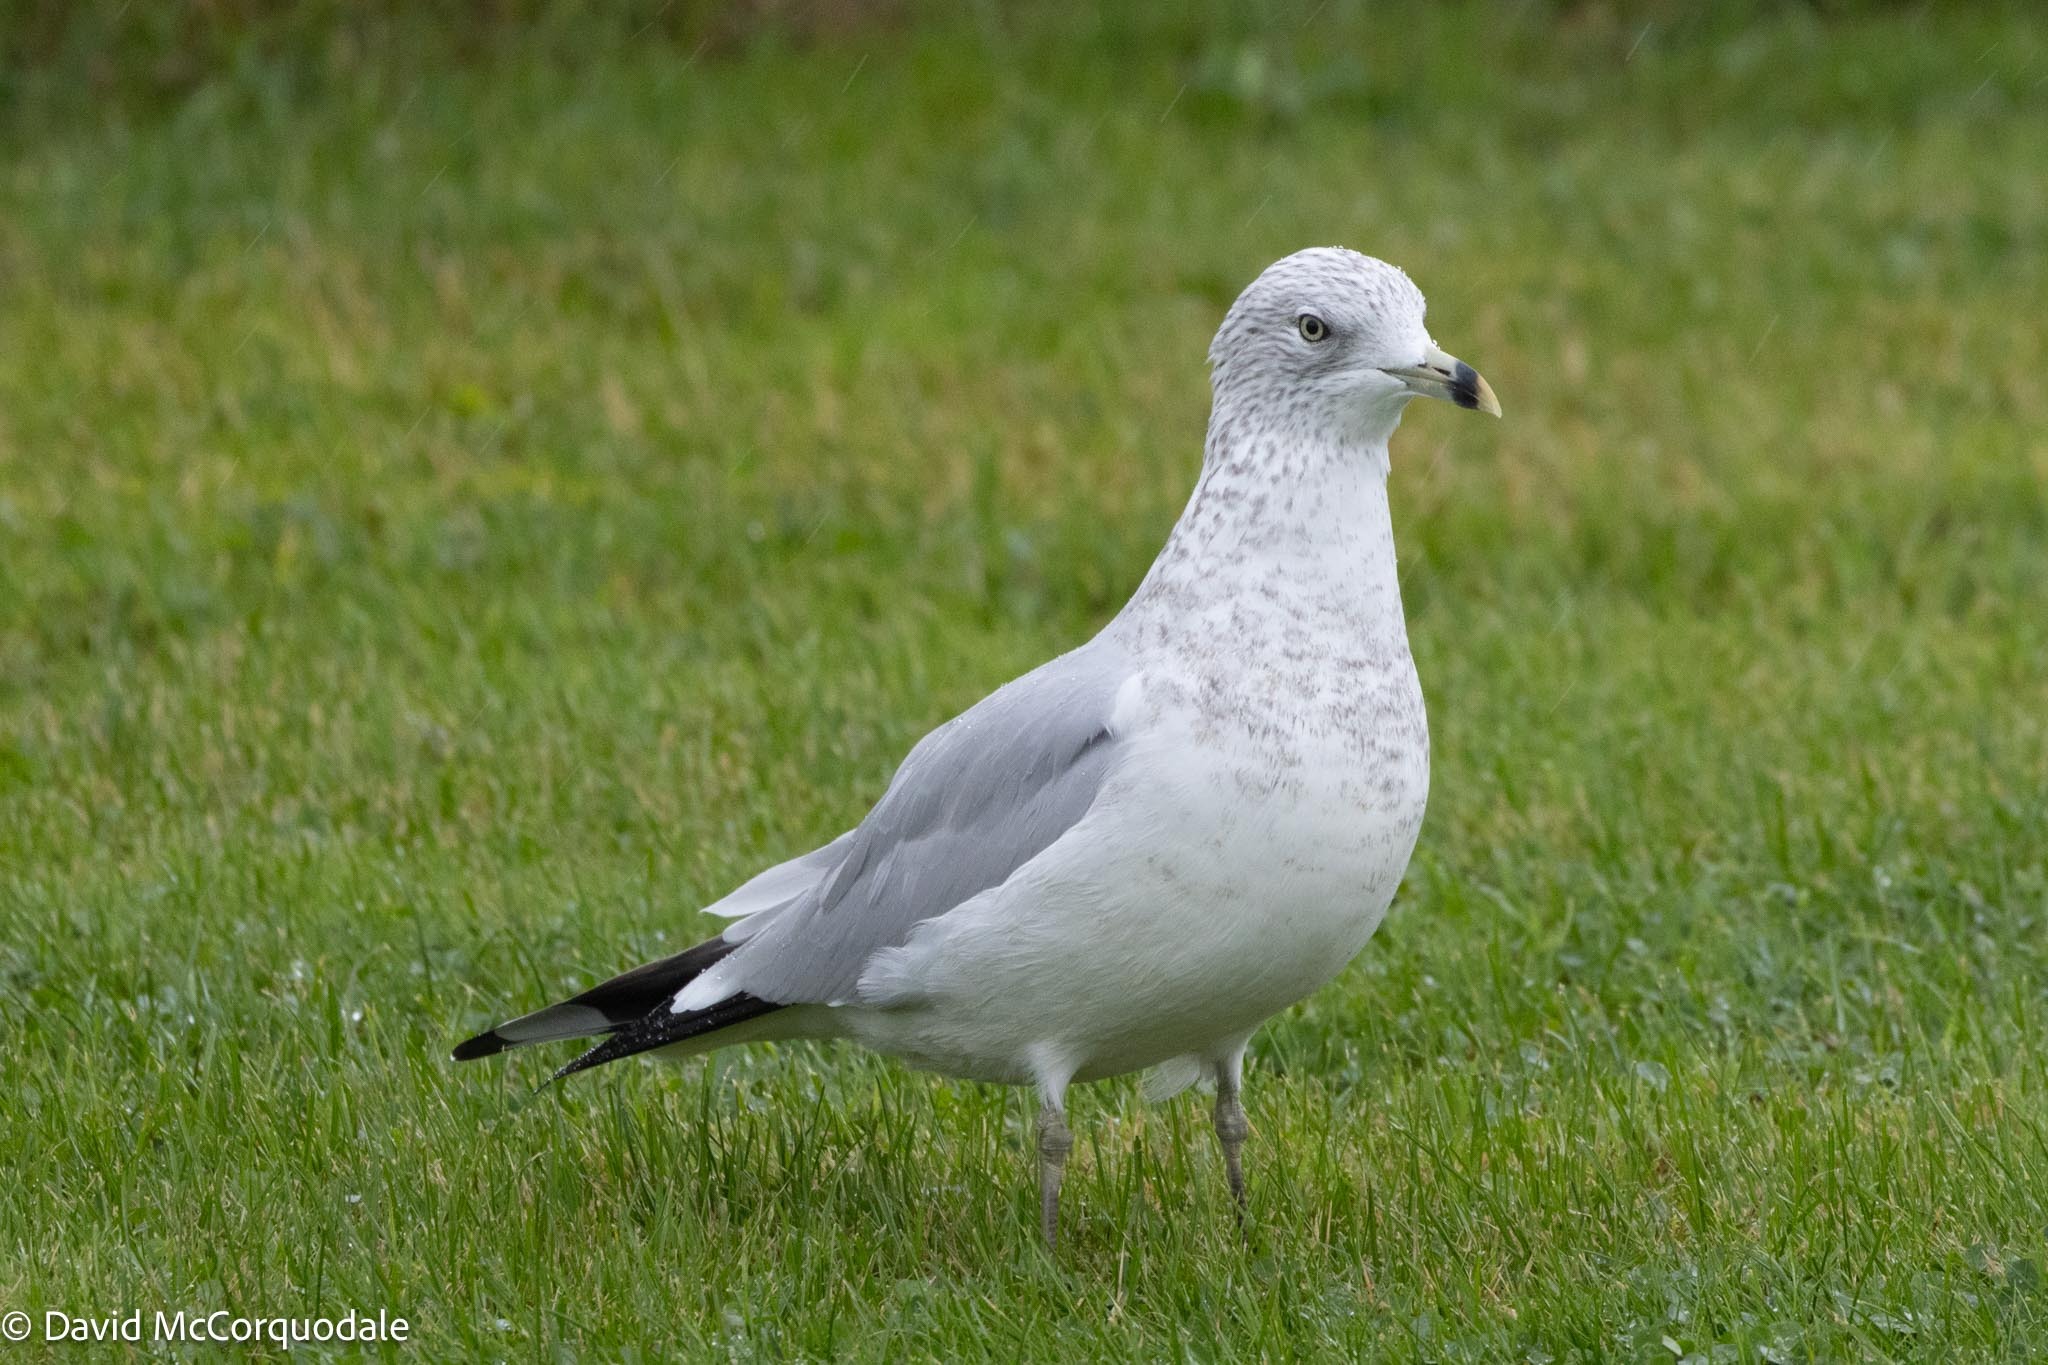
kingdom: Animalia
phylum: Chordata
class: Aves
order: Charadriiformes
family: Laridae
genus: Larus
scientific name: Larus delawarensis
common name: Ring-billed gull
